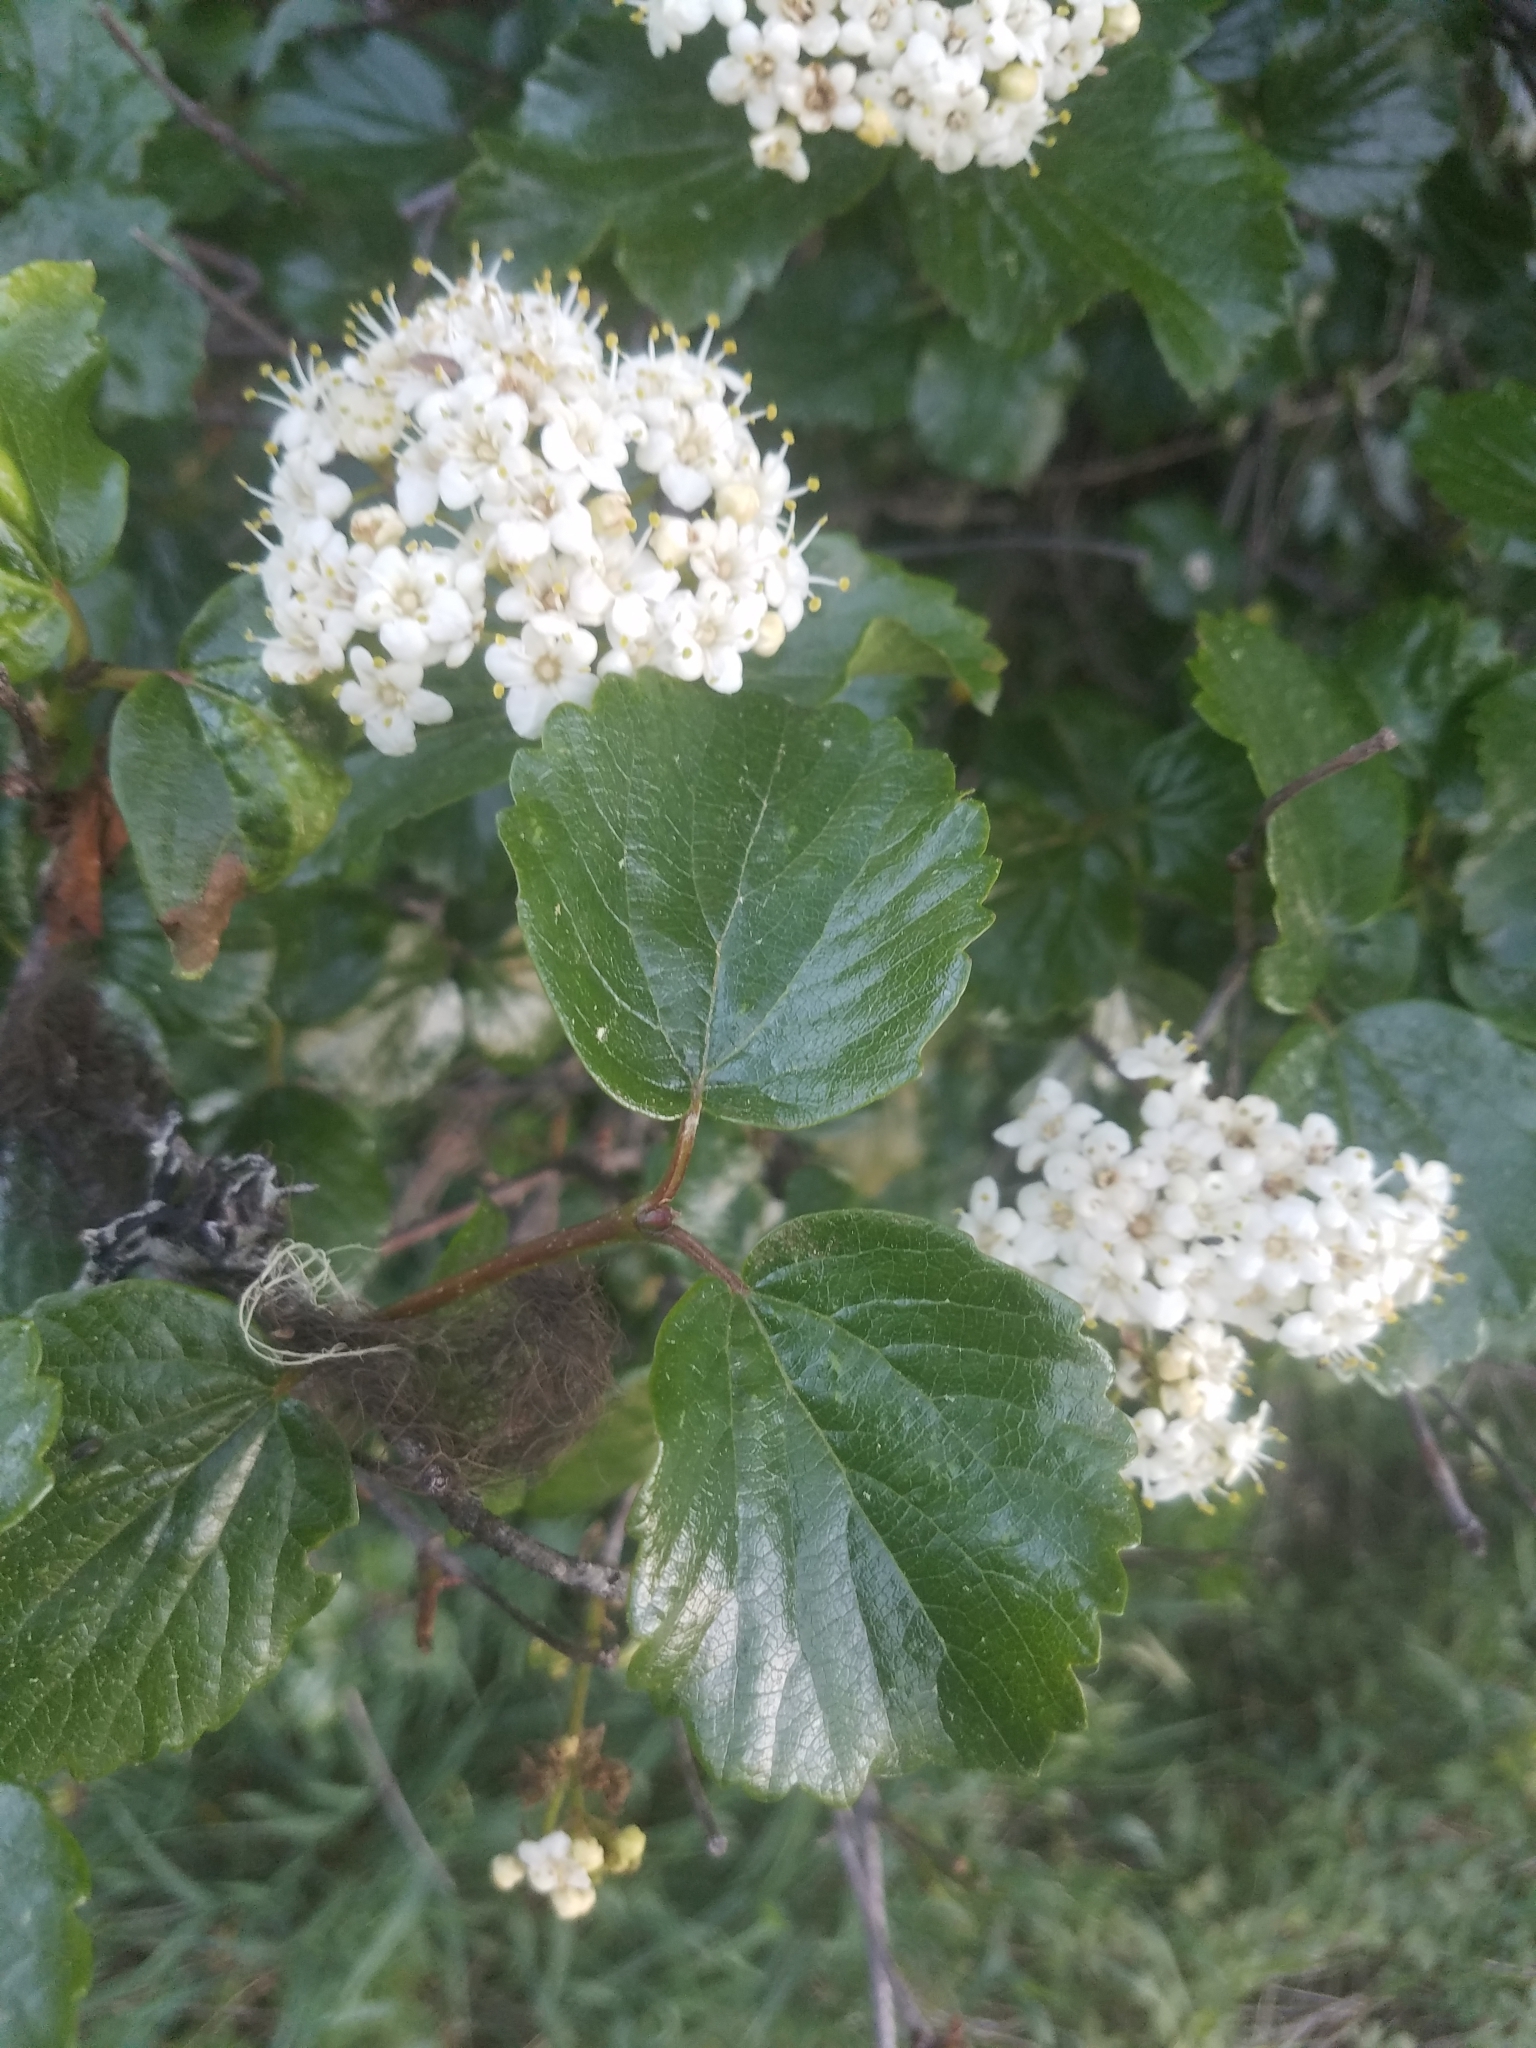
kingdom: Plantae
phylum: Tracheophyta
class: Magnoliopsida
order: Dipsacales
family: Viburnaceae
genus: Viburnum
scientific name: Viburnum ellipticum
